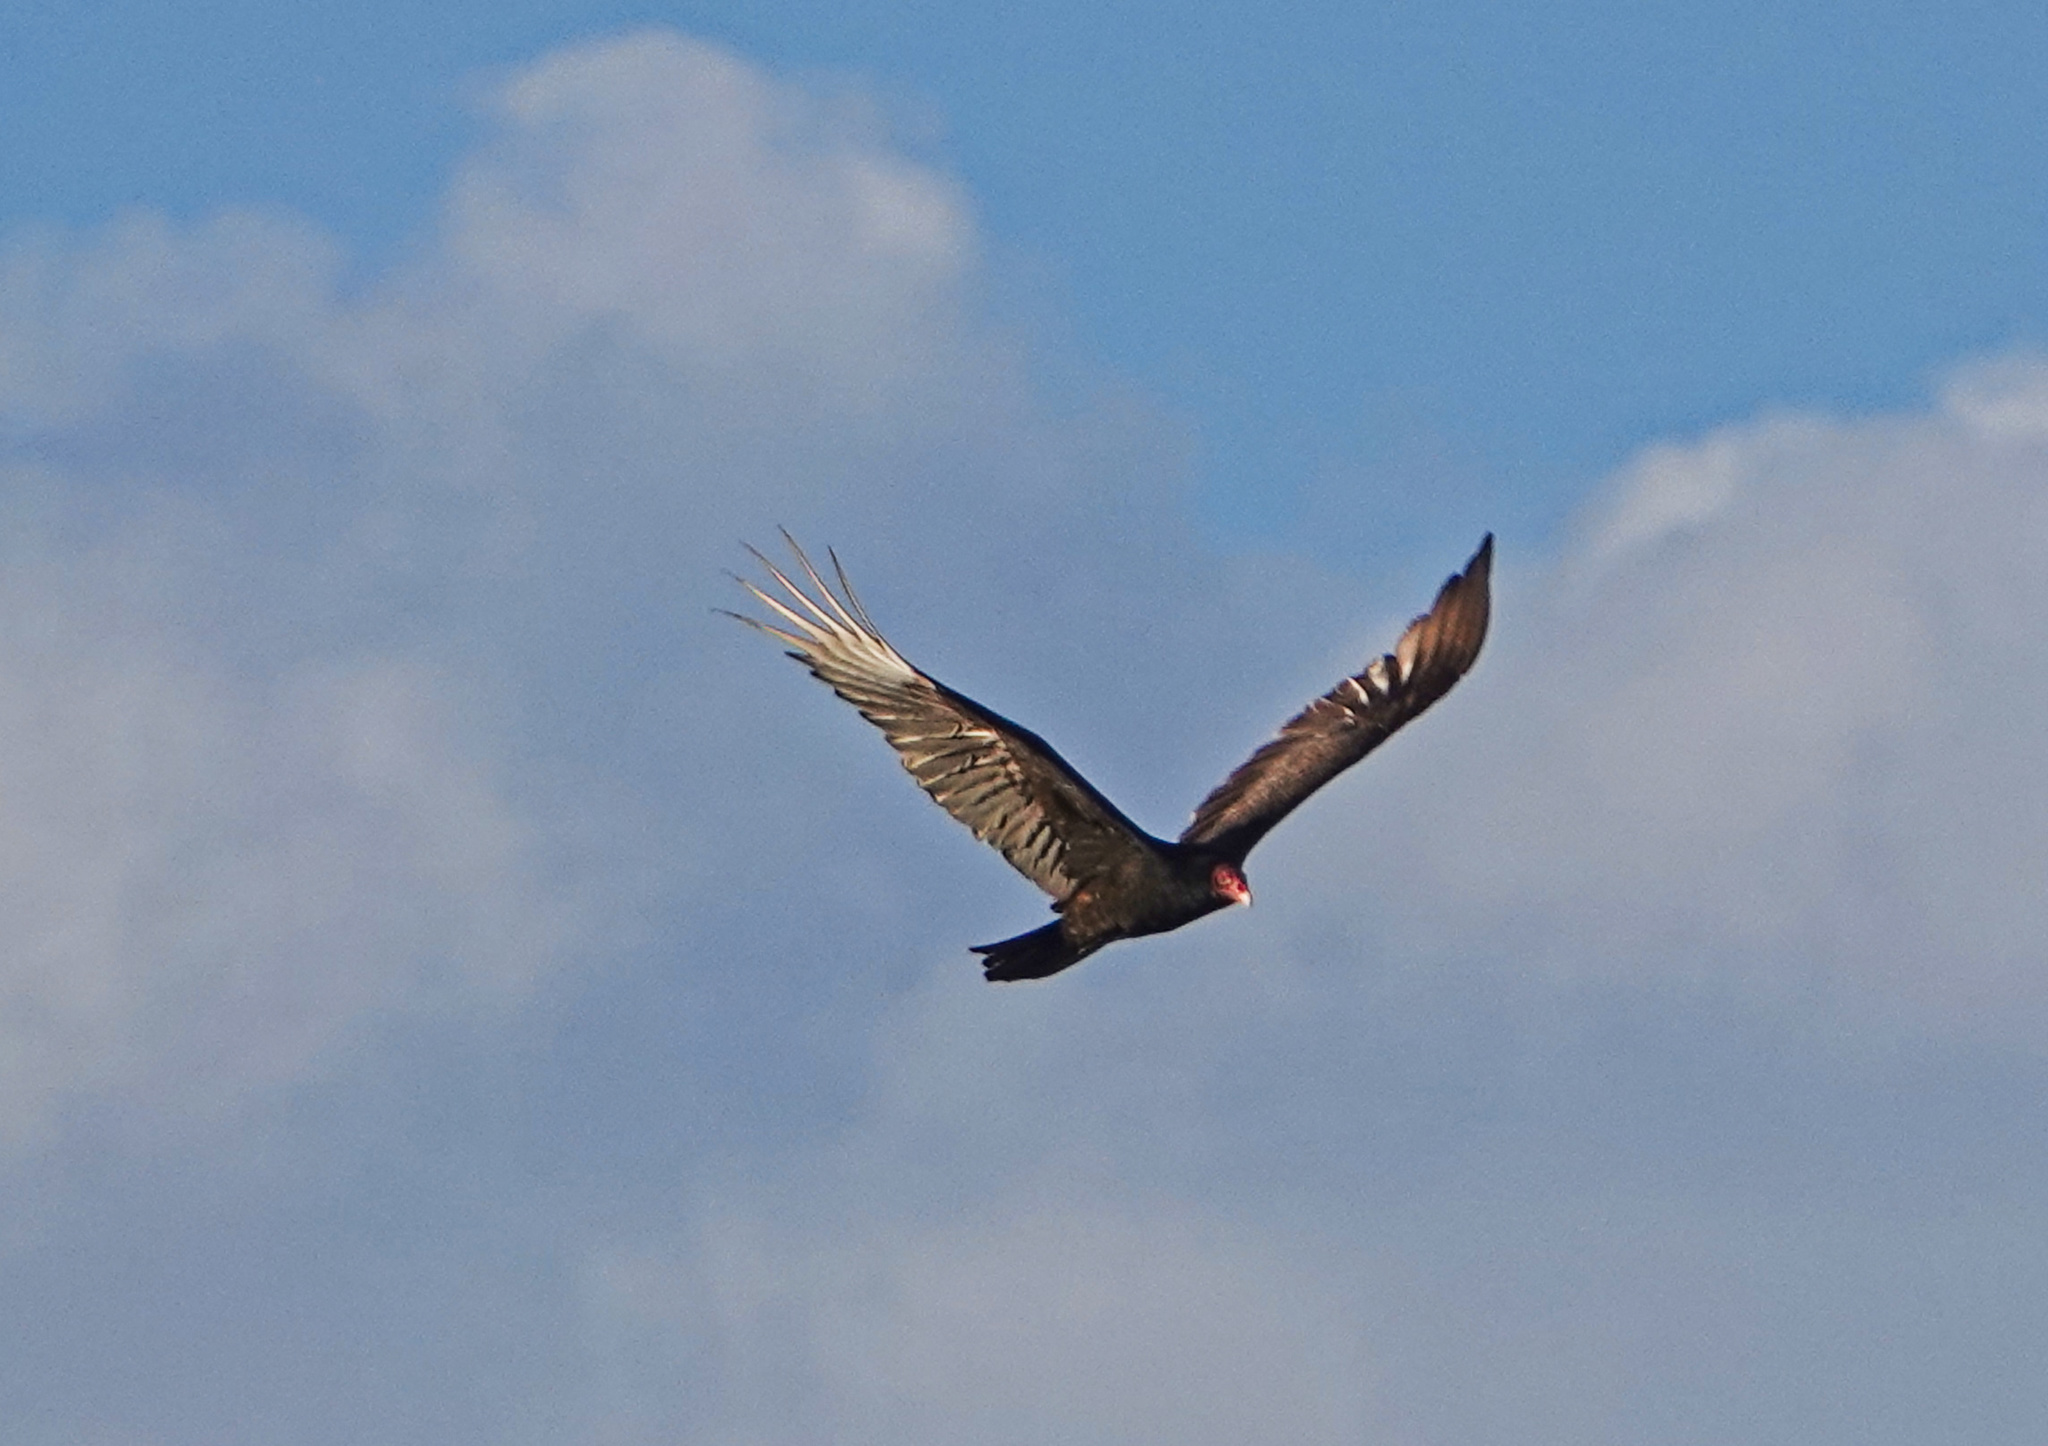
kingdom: Animalia
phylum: Chordata
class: Aves
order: Accipitriformes
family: Cathartidae
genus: Cathartes
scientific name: Cathartes aura
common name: Turkey vulture
